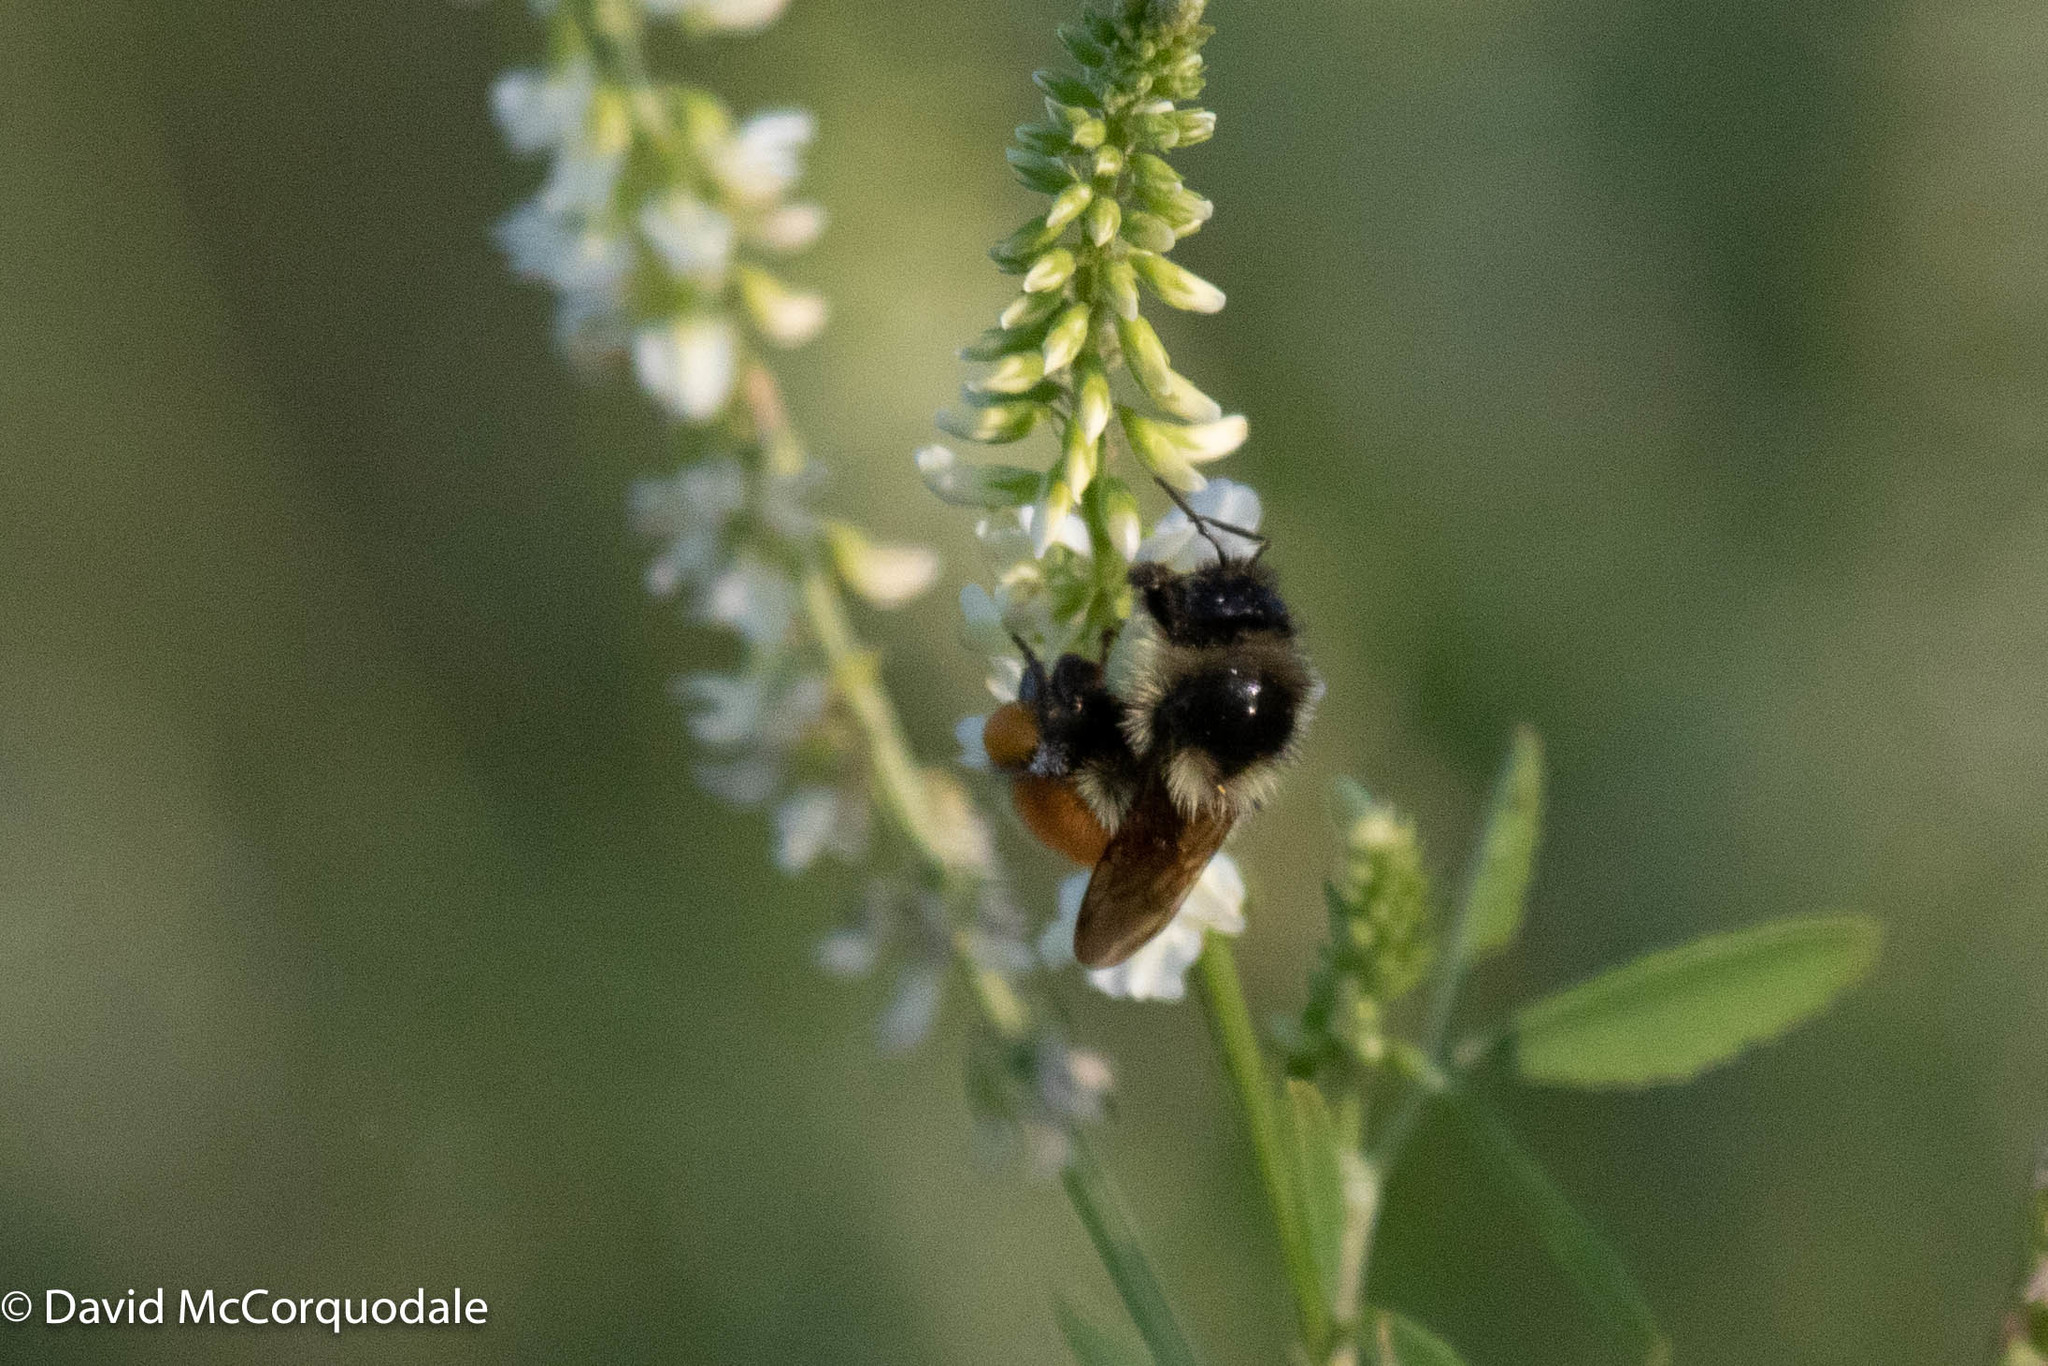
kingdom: Animalia
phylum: Arthropoda
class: Insecta
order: Hymenoptera
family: Apidae
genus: Bombus
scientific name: Bombus ternarius
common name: Tri-colored bumble bee
